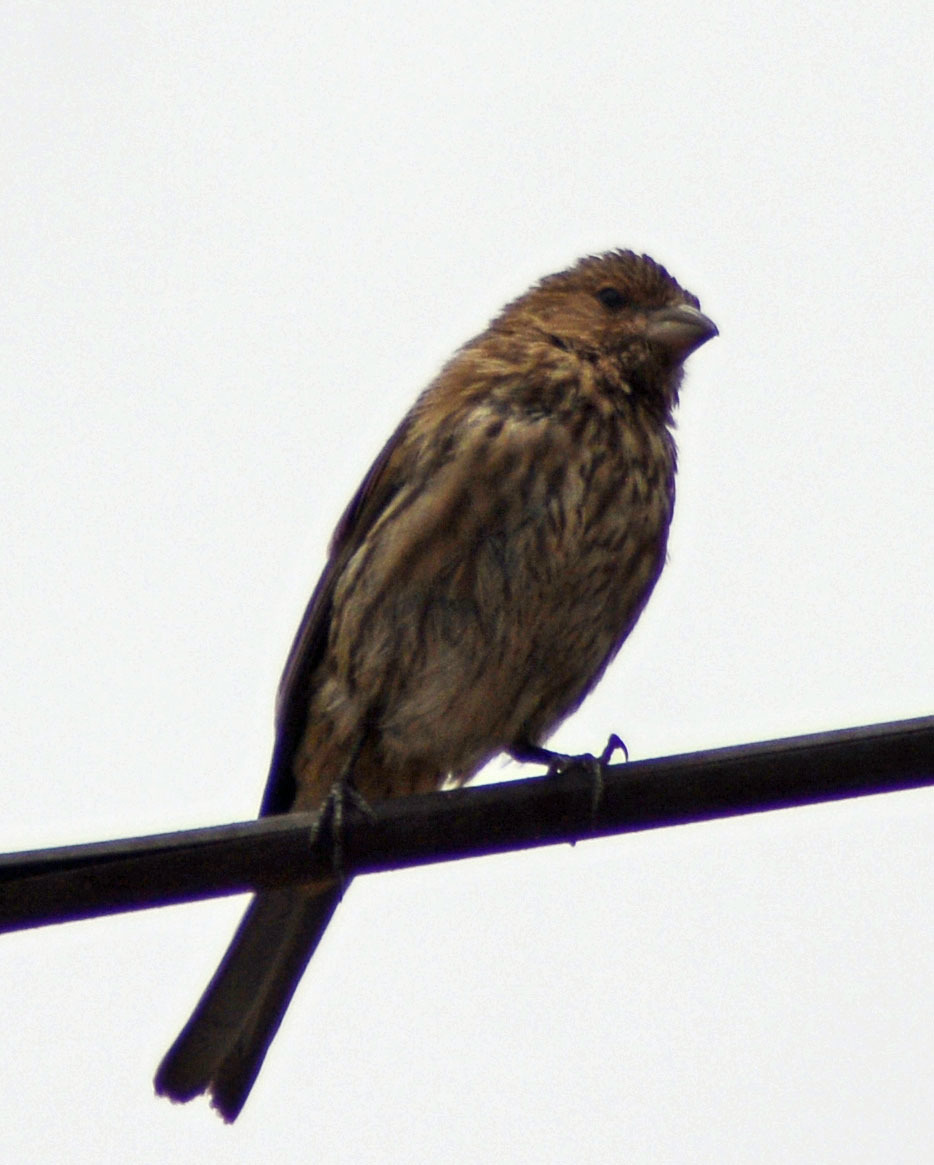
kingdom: Animalia
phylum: Chordata
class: Aves
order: Passeriformes
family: Fringillidae
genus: Haemorhous
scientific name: Haemorhous mexicanus
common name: House finch
